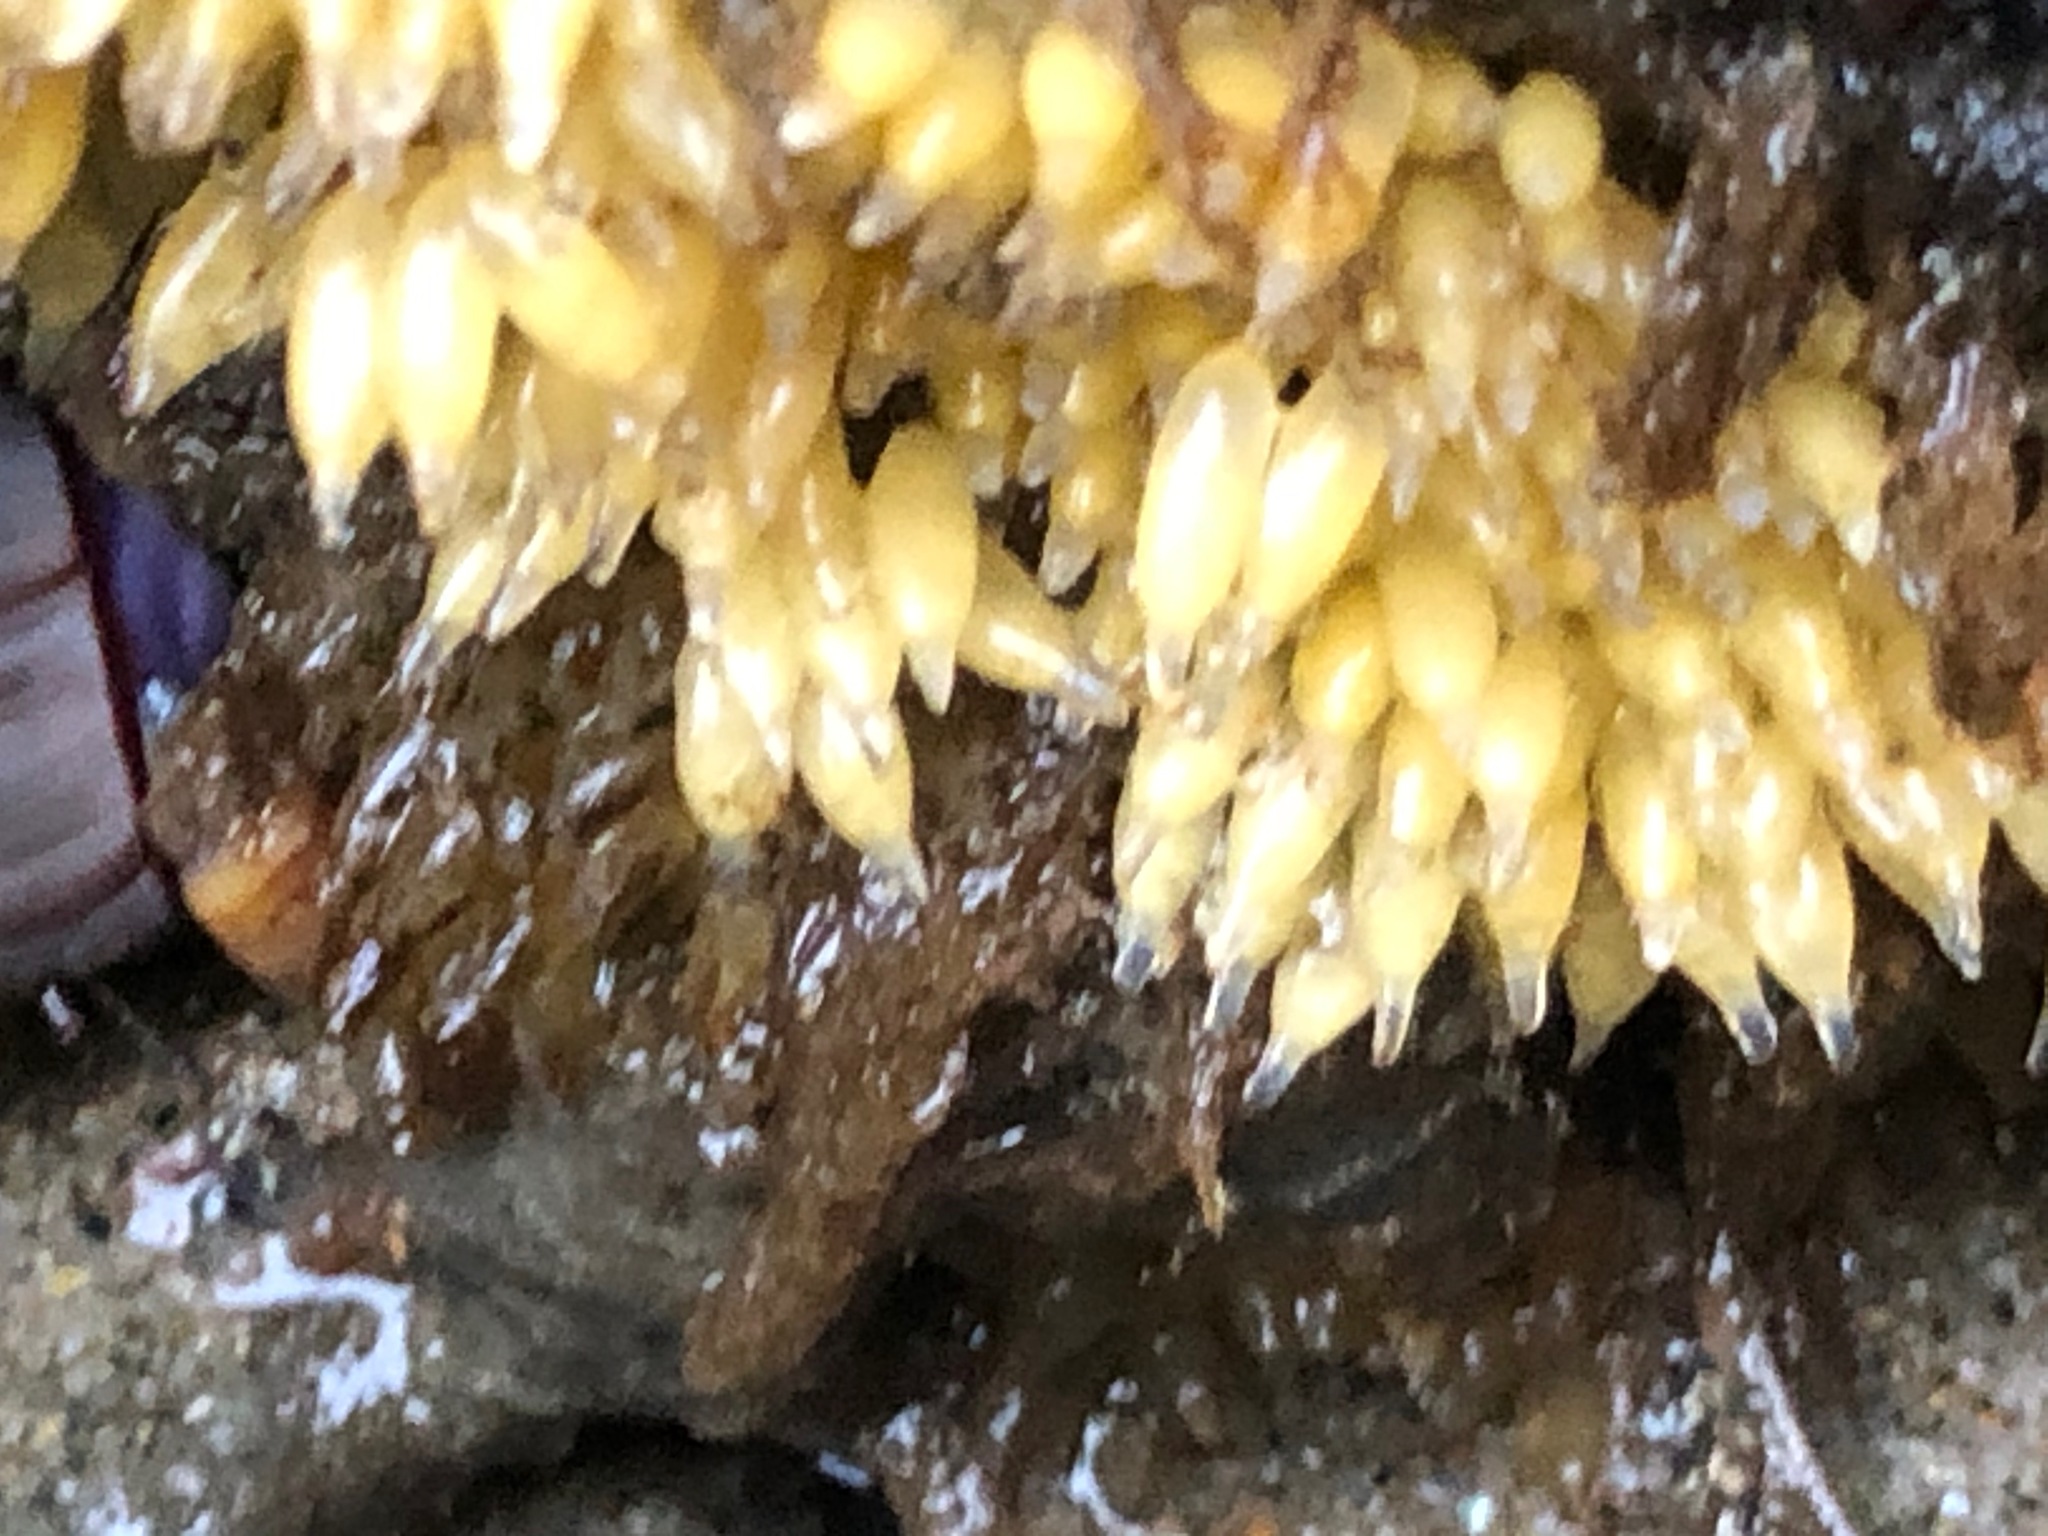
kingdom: Animalia
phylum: Mollusca
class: Gastropoda
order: Neogastropoda
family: Muricidae
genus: Acanthinucella
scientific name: Acanthinucella spirata
